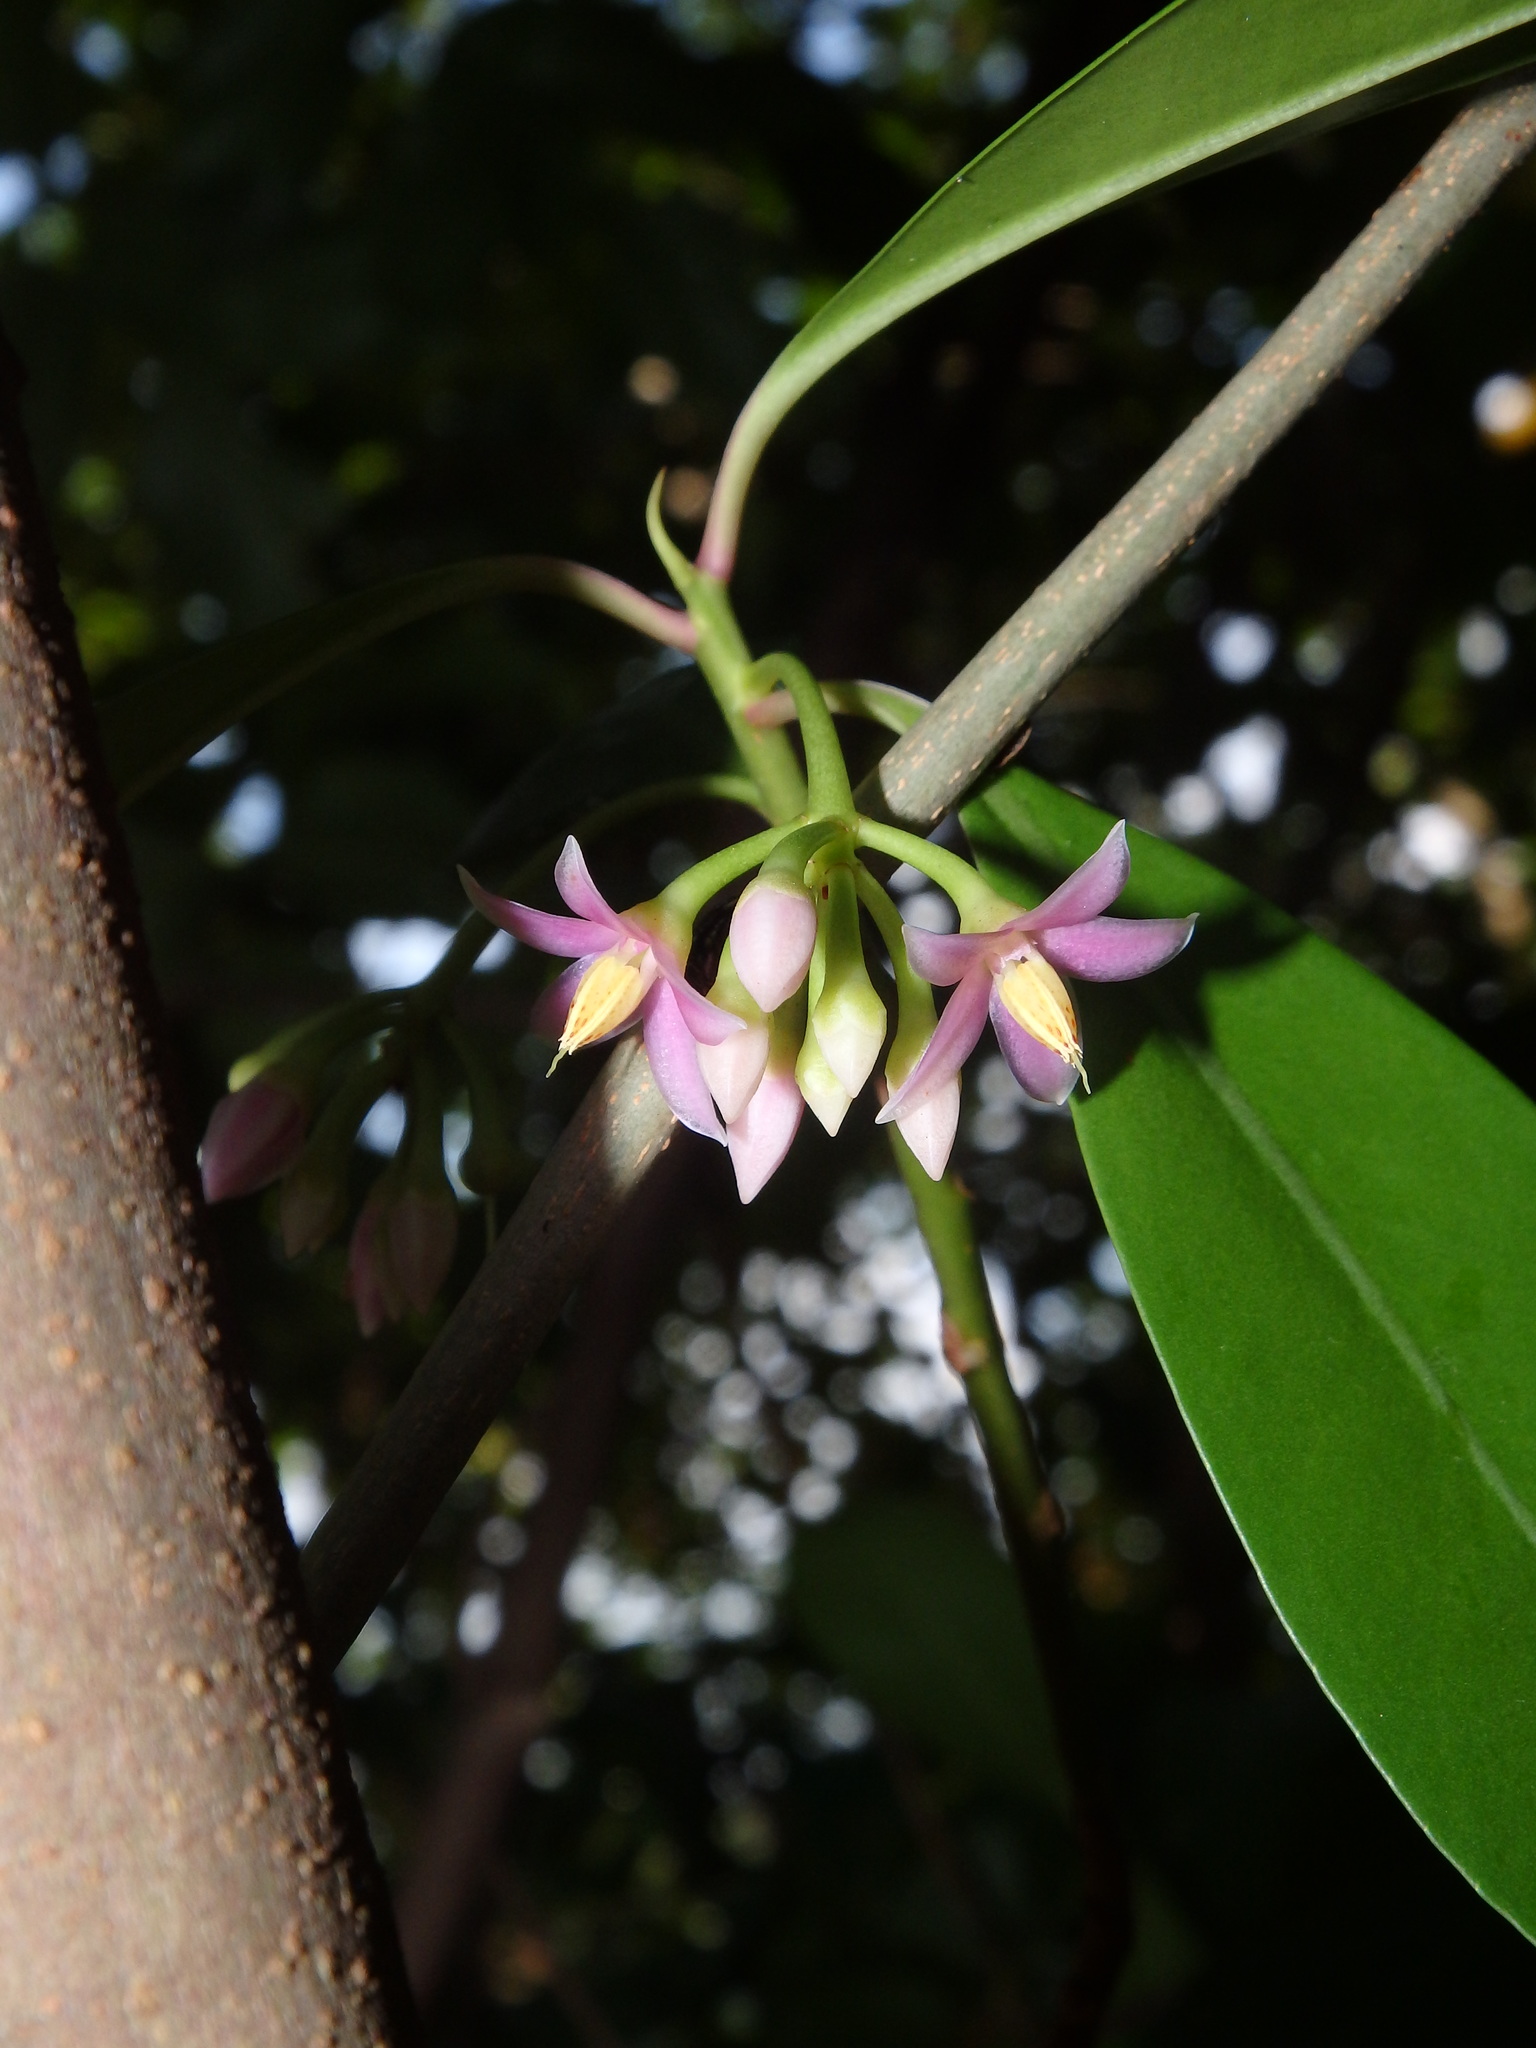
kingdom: Plantae
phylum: Tracheophyta
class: Magnoliopsida
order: Ericales
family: Primulaceae
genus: Ardisia
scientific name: Ardisia elliptica
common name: Shoebutton
